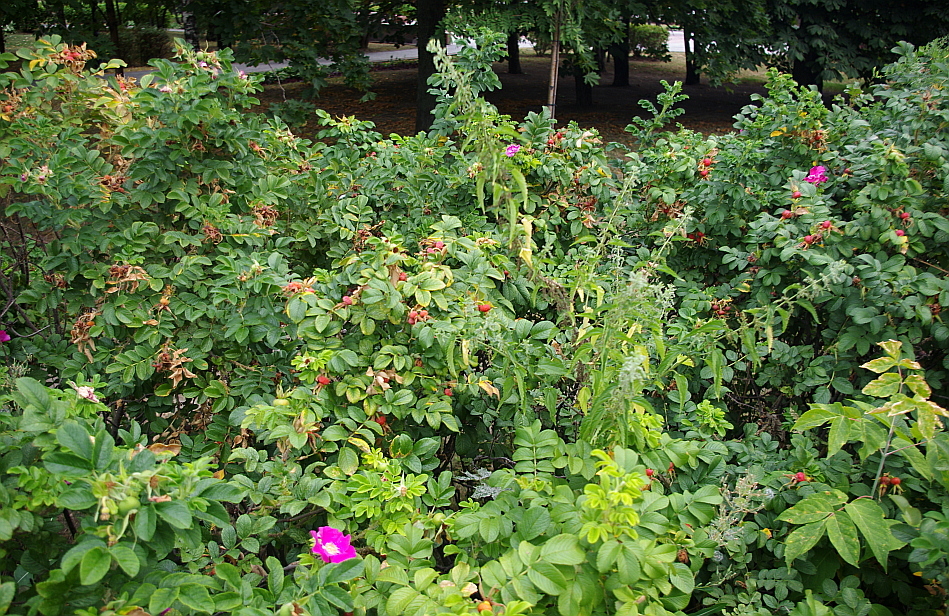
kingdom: Plantae
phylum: Tracheophyta
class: Magnoliopsida
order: Rosales
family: Urticaceae
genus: Urtica
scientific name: Urtica dioica
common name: Common nettle
